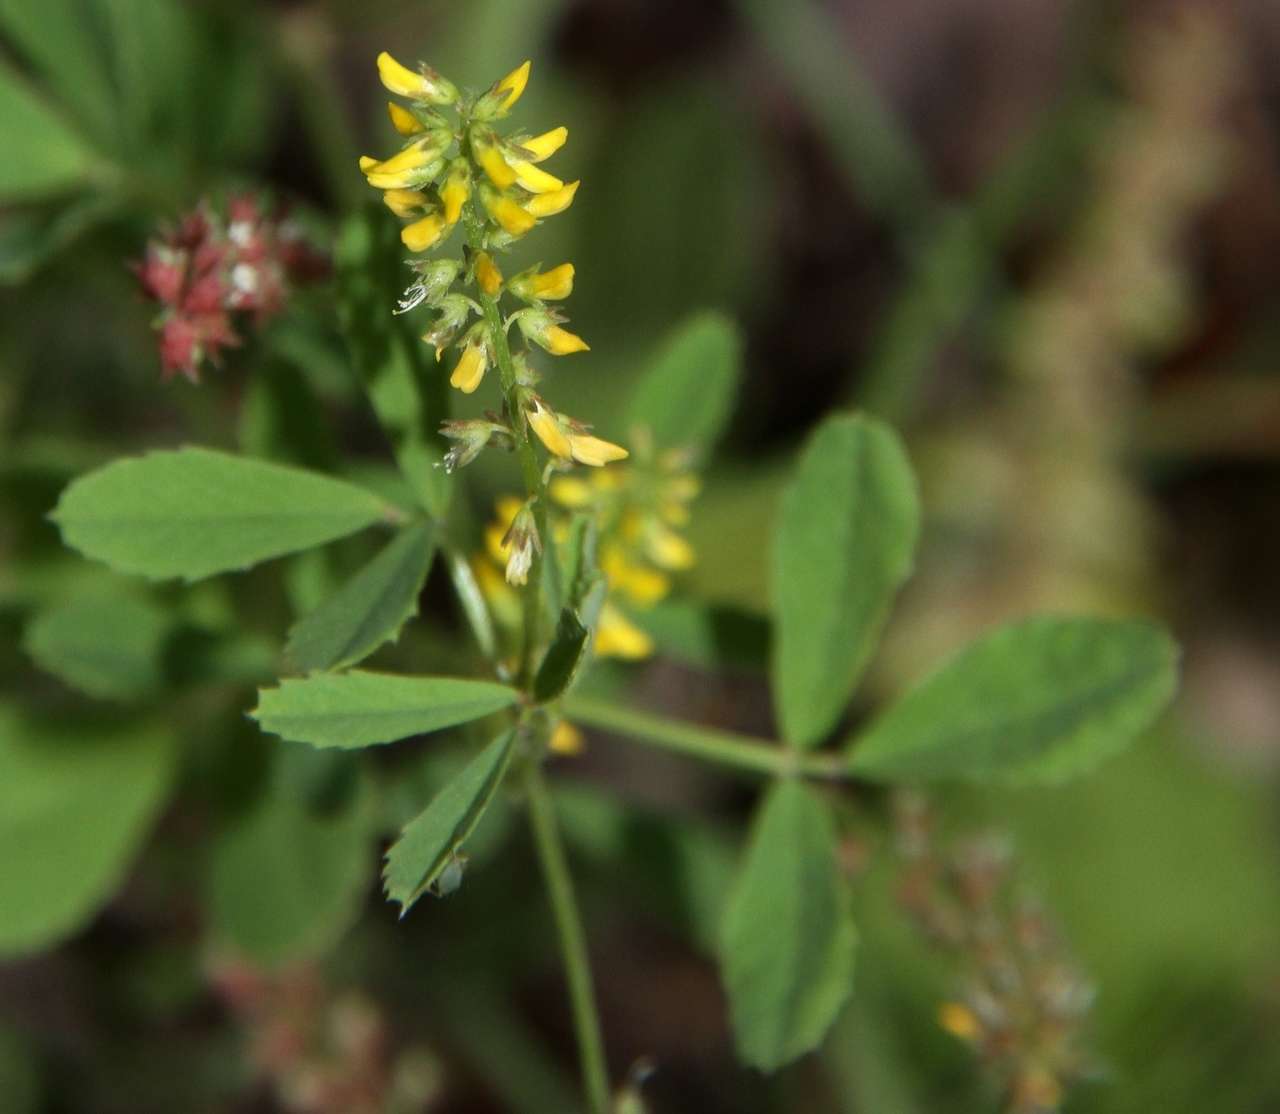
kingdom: Plantae
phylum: Tracheophyta
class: Magnoliopsida
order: Fabales
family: Fabaceae
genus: Melilotus
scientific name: Melilotus indicus
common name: Small melilot
